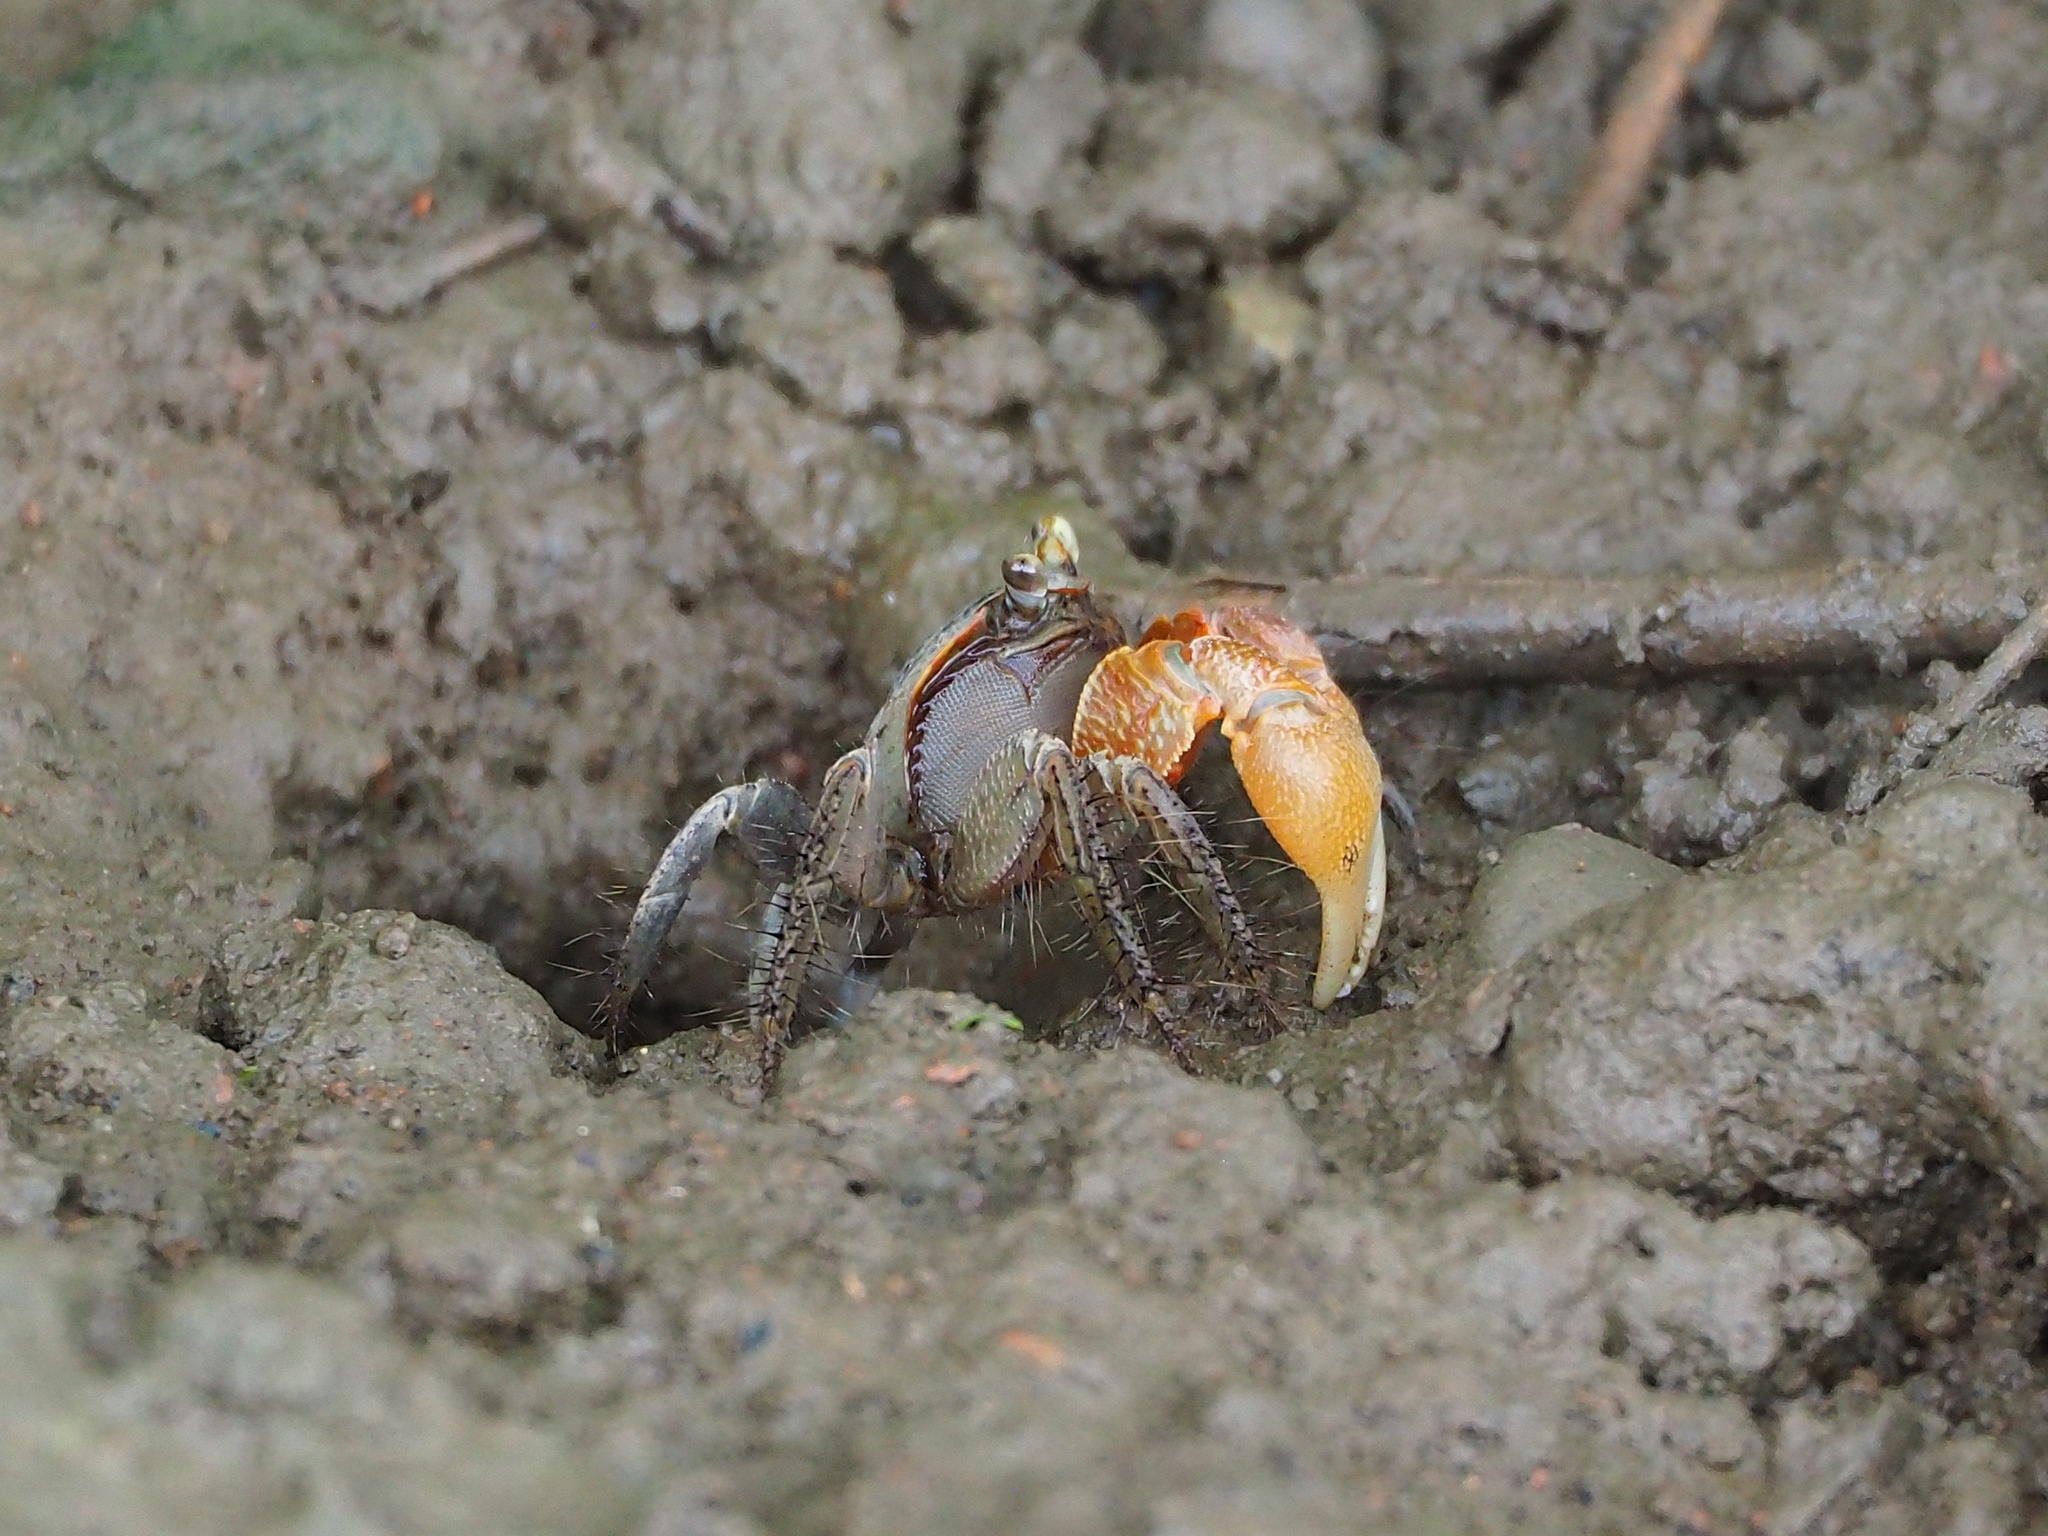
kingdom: Animalia
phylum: Arthropoda
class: Malacostraca
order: Decapoda
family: Sesarmidae
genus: Orisarma
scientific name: Orisarma dehaani
